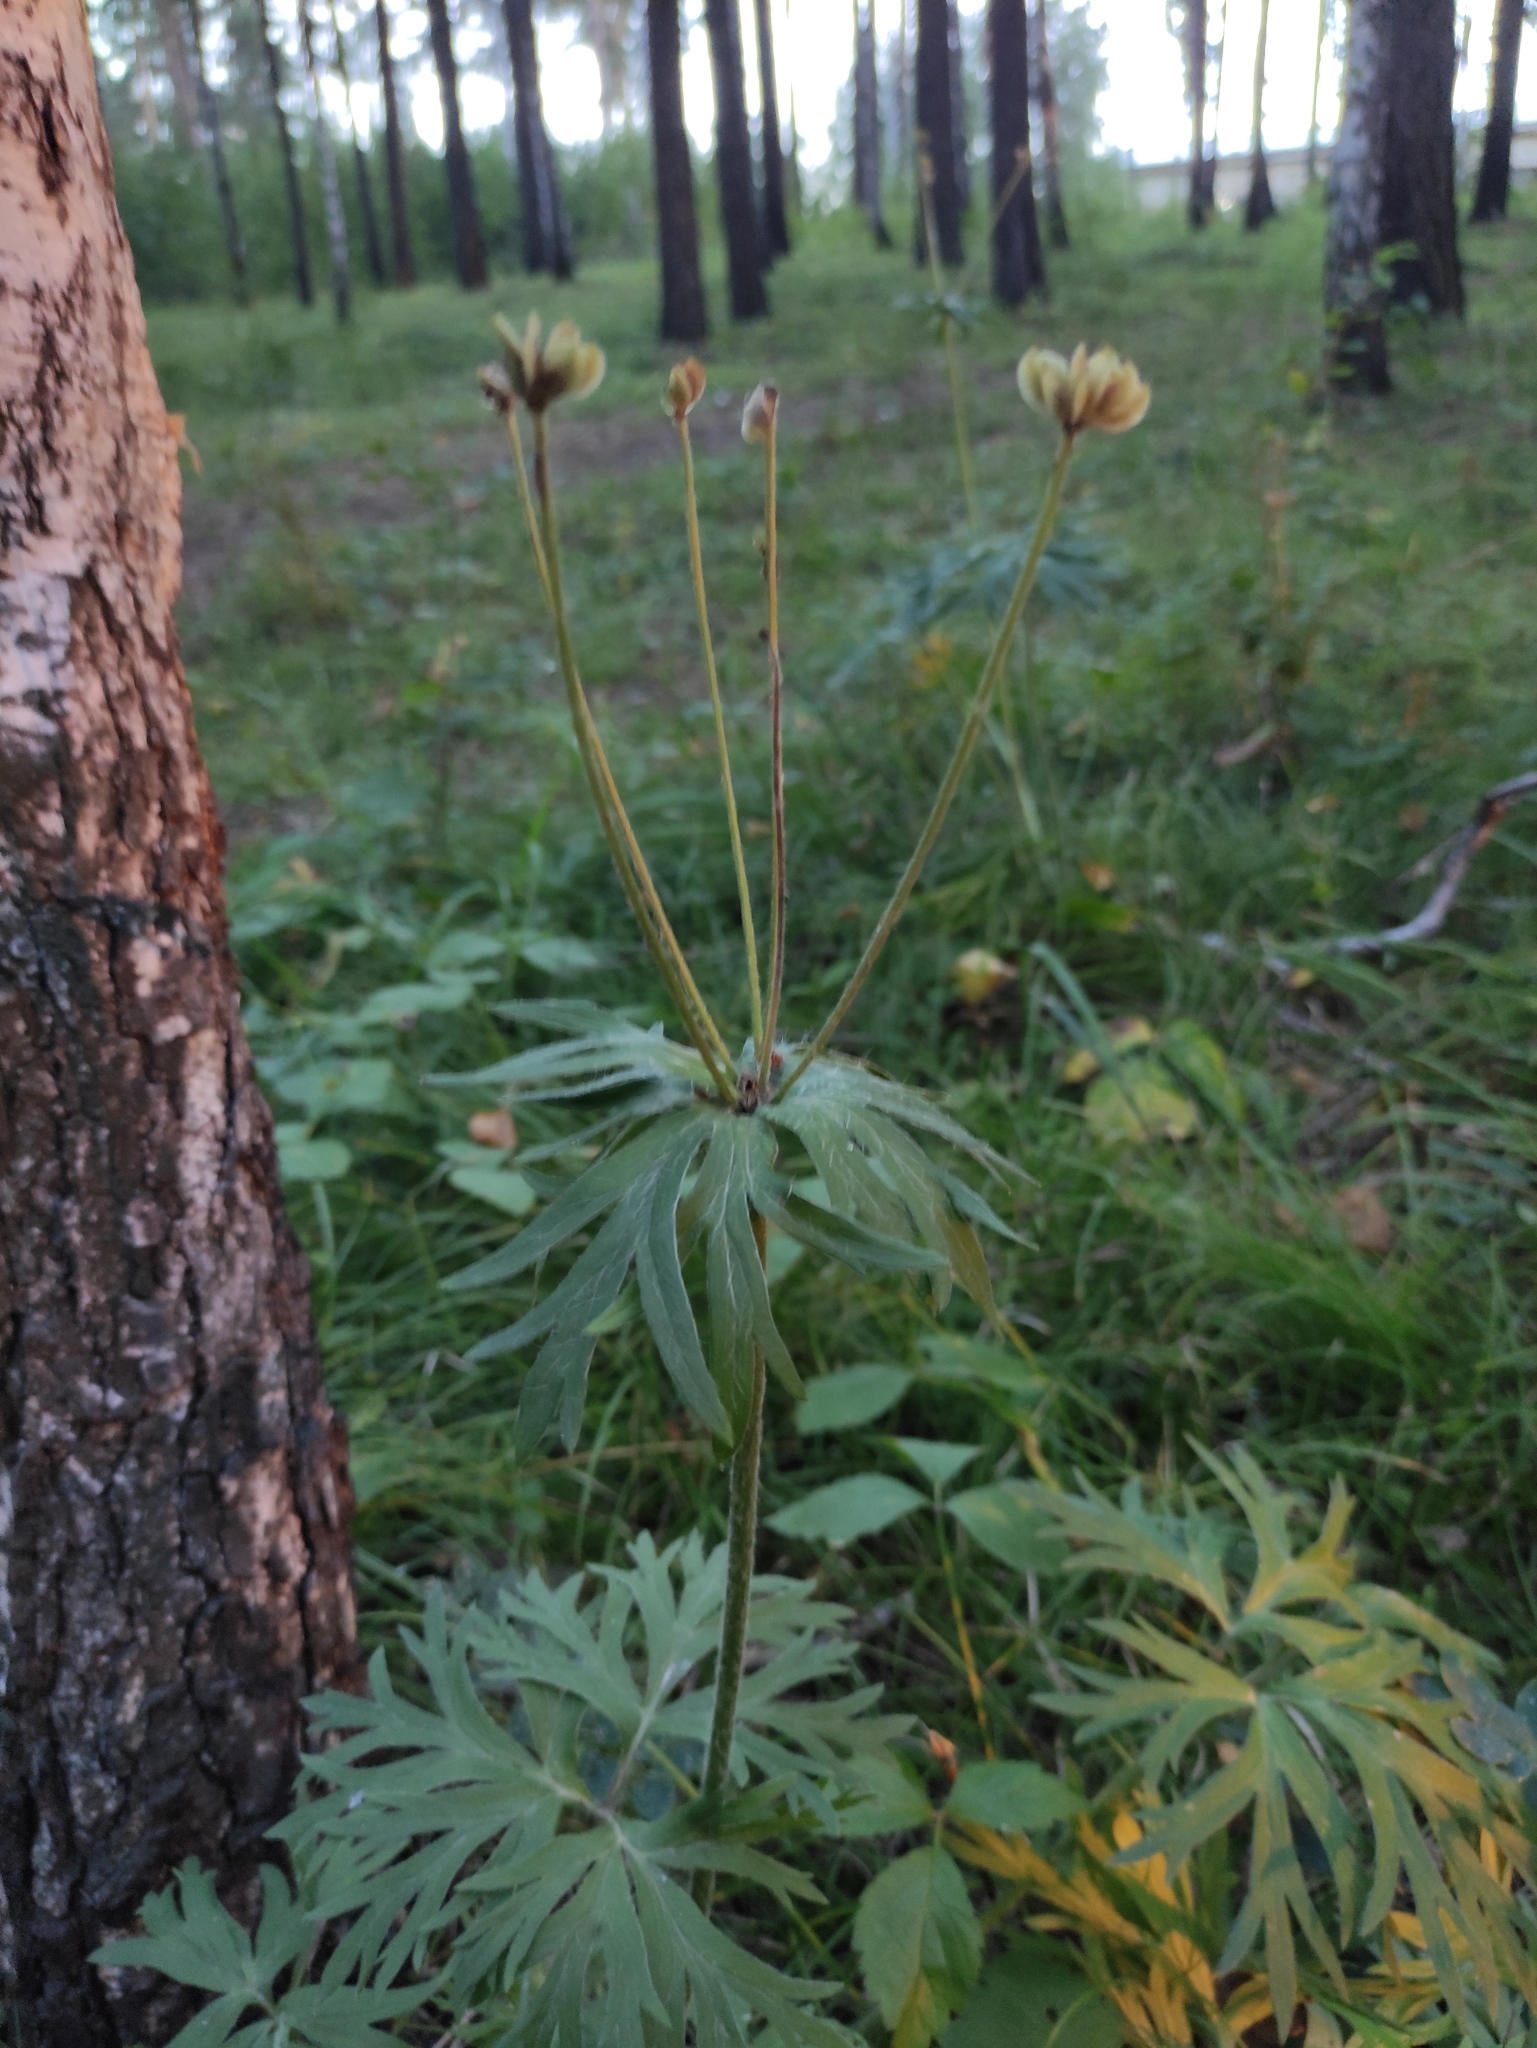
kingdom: Plantae
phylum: Tracheophyta
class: Magnoliopsida
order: Ranunculales
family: Ranunculaceae
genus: Anemonastrum
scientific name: Anemonastrum narcissiflorum
